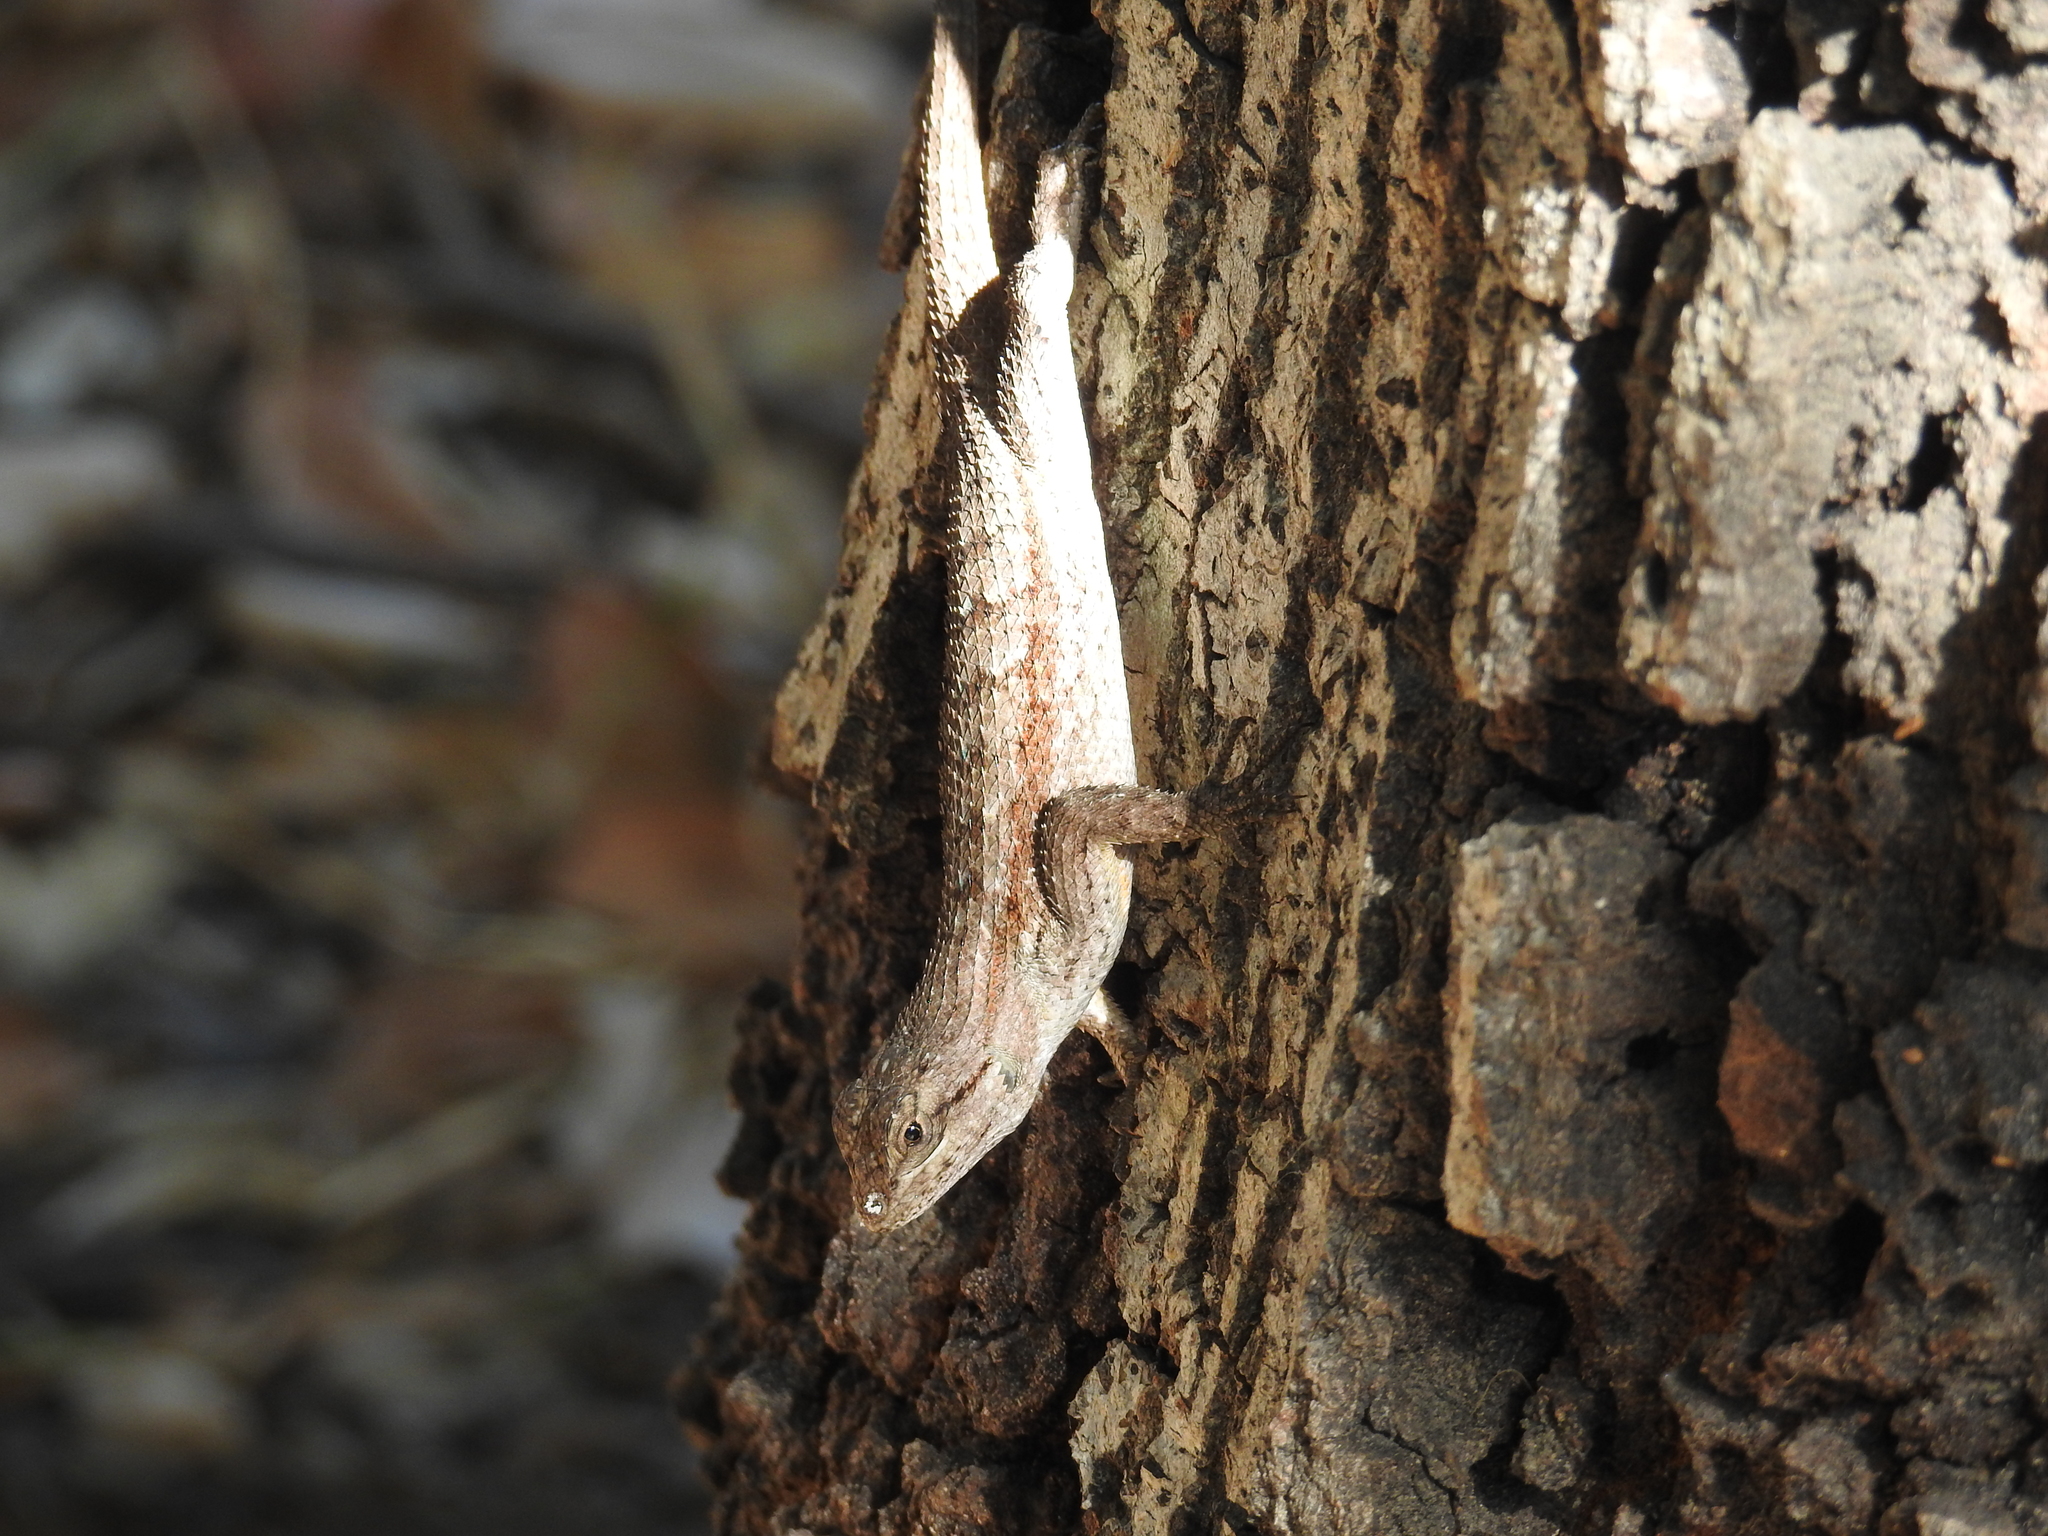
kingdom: Animalia
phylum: Chordata
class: Squamata
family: Phrynosomatidae
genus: Sceloporus
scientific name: Sceloporus occidentalis
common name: Western fence lizard
